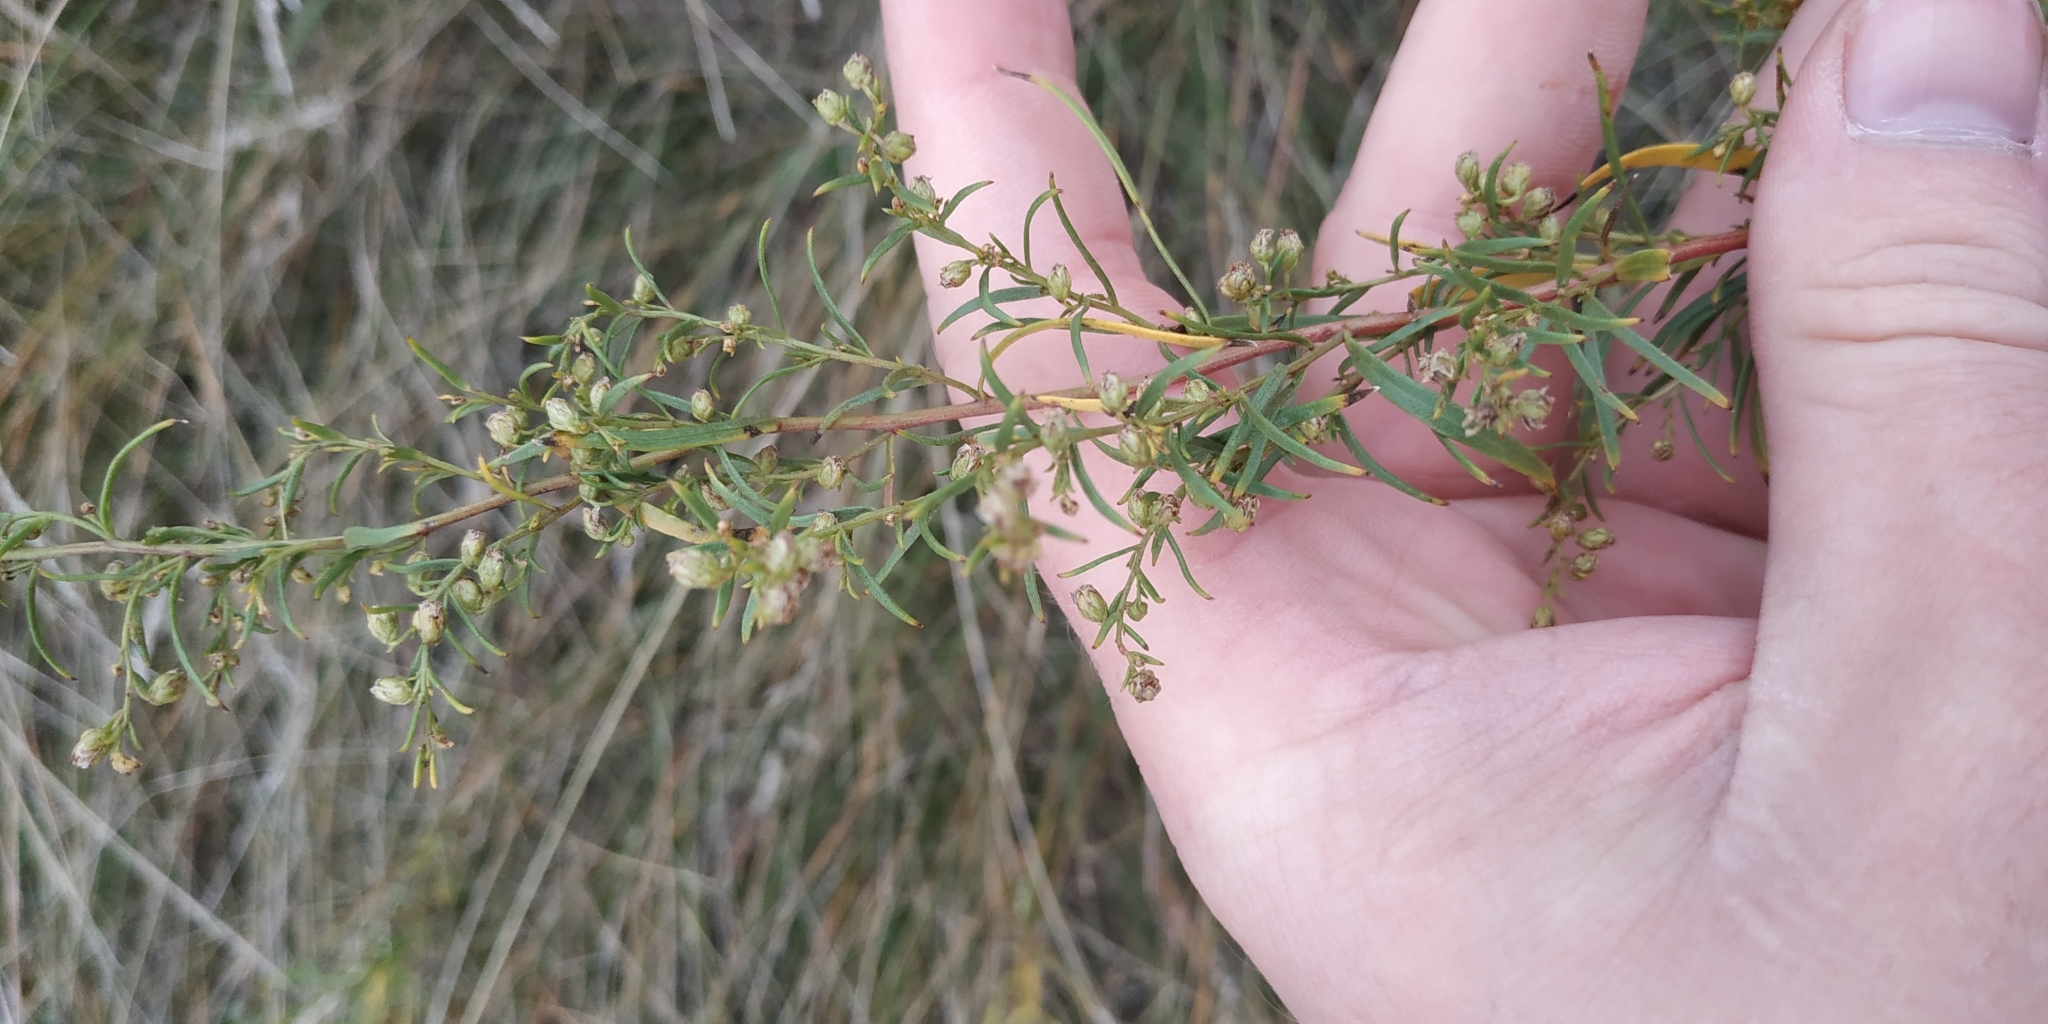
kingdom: Plantae
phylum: Tracheophyta
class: Magnoliopsida
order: Asterales
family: Asteraceae
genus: Artemisia
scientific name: Artemisia dracunculus
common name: Tarragon
